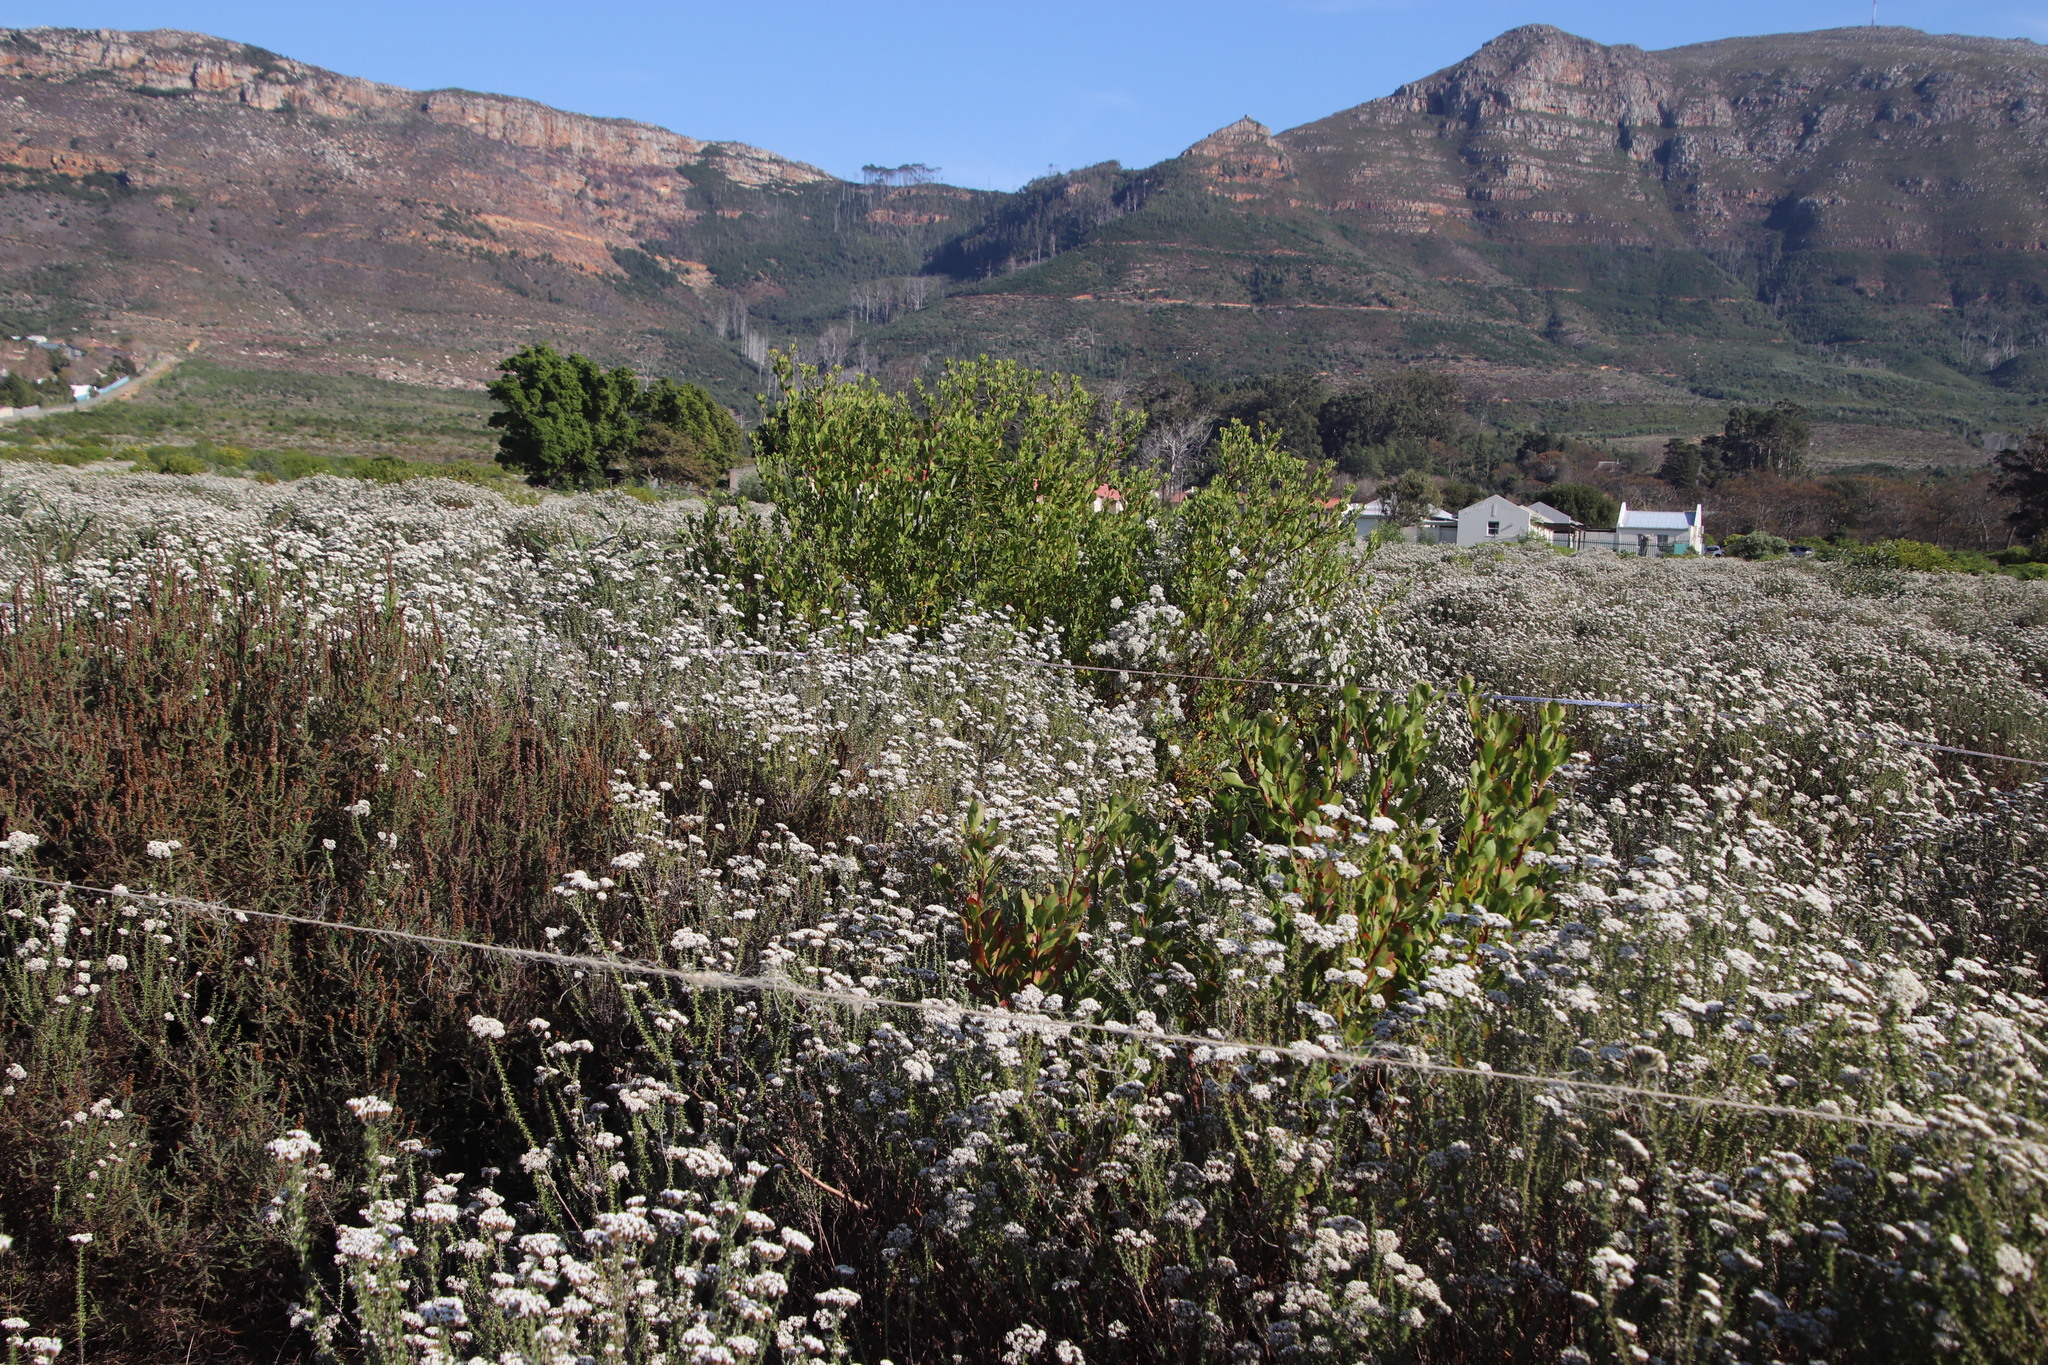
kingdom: Plantae
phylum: Tracheophyta
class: Magnoliopsida
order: Asterales
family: Asteraceae
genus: Osteospermum
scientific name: Osteospermum moniliferum
